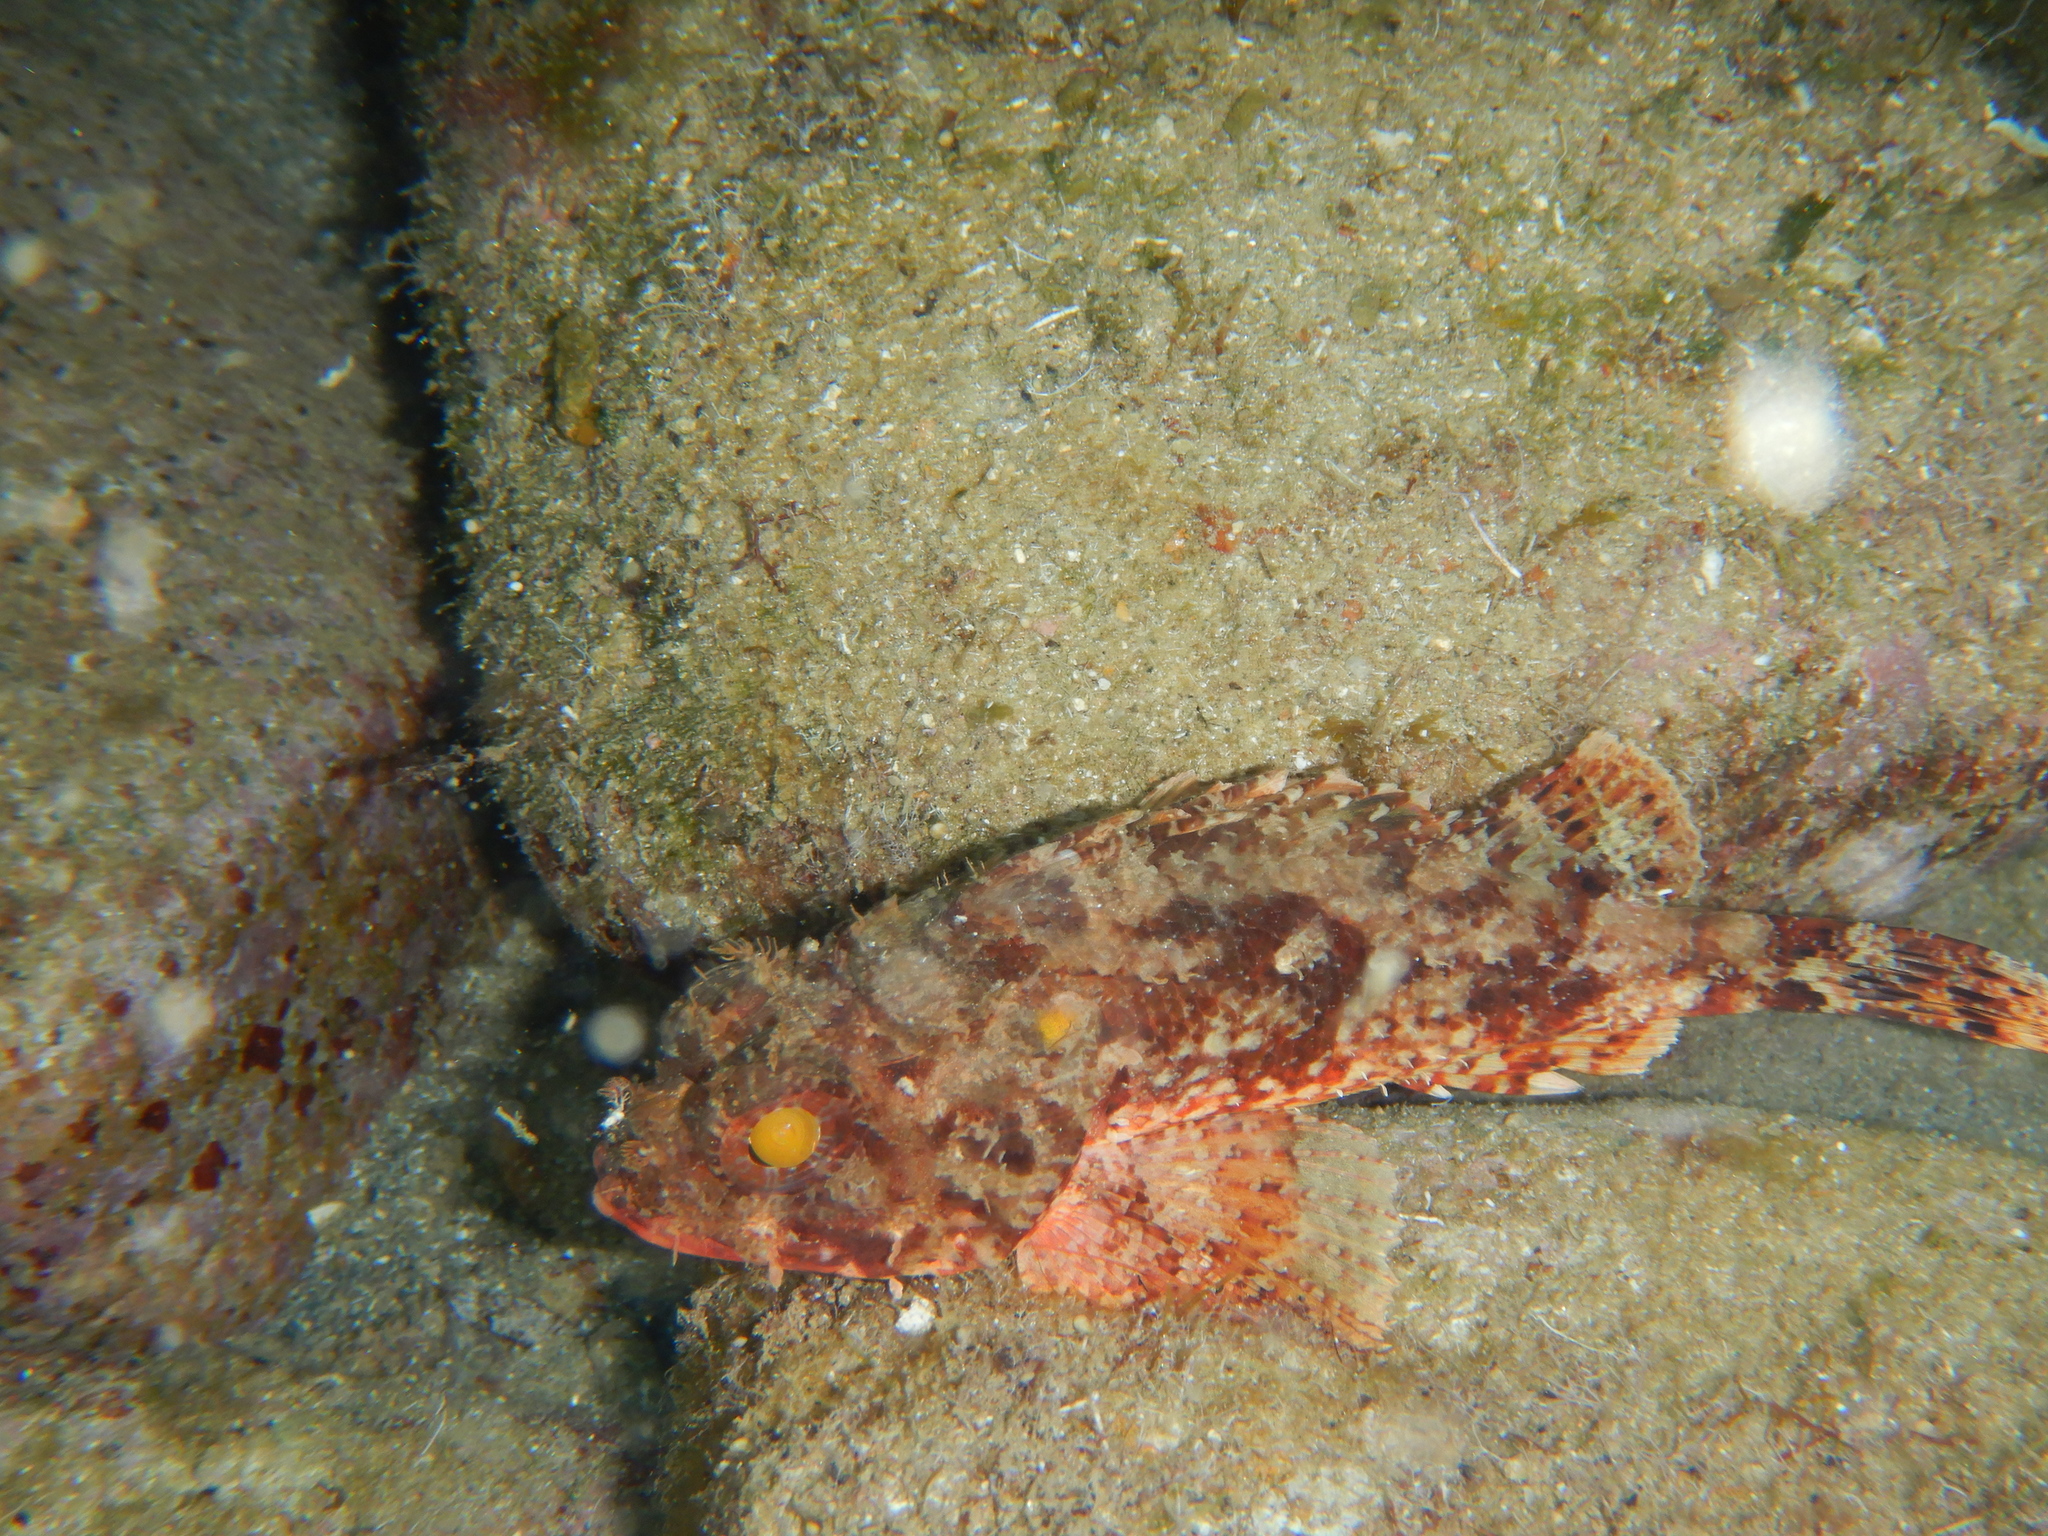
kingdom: Animalia
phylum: Chordata
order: Scorpaeniformes
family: Scorpaenidae
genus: Scorpaena
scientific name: Scorpaena notata
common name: Small red scorpionfish
